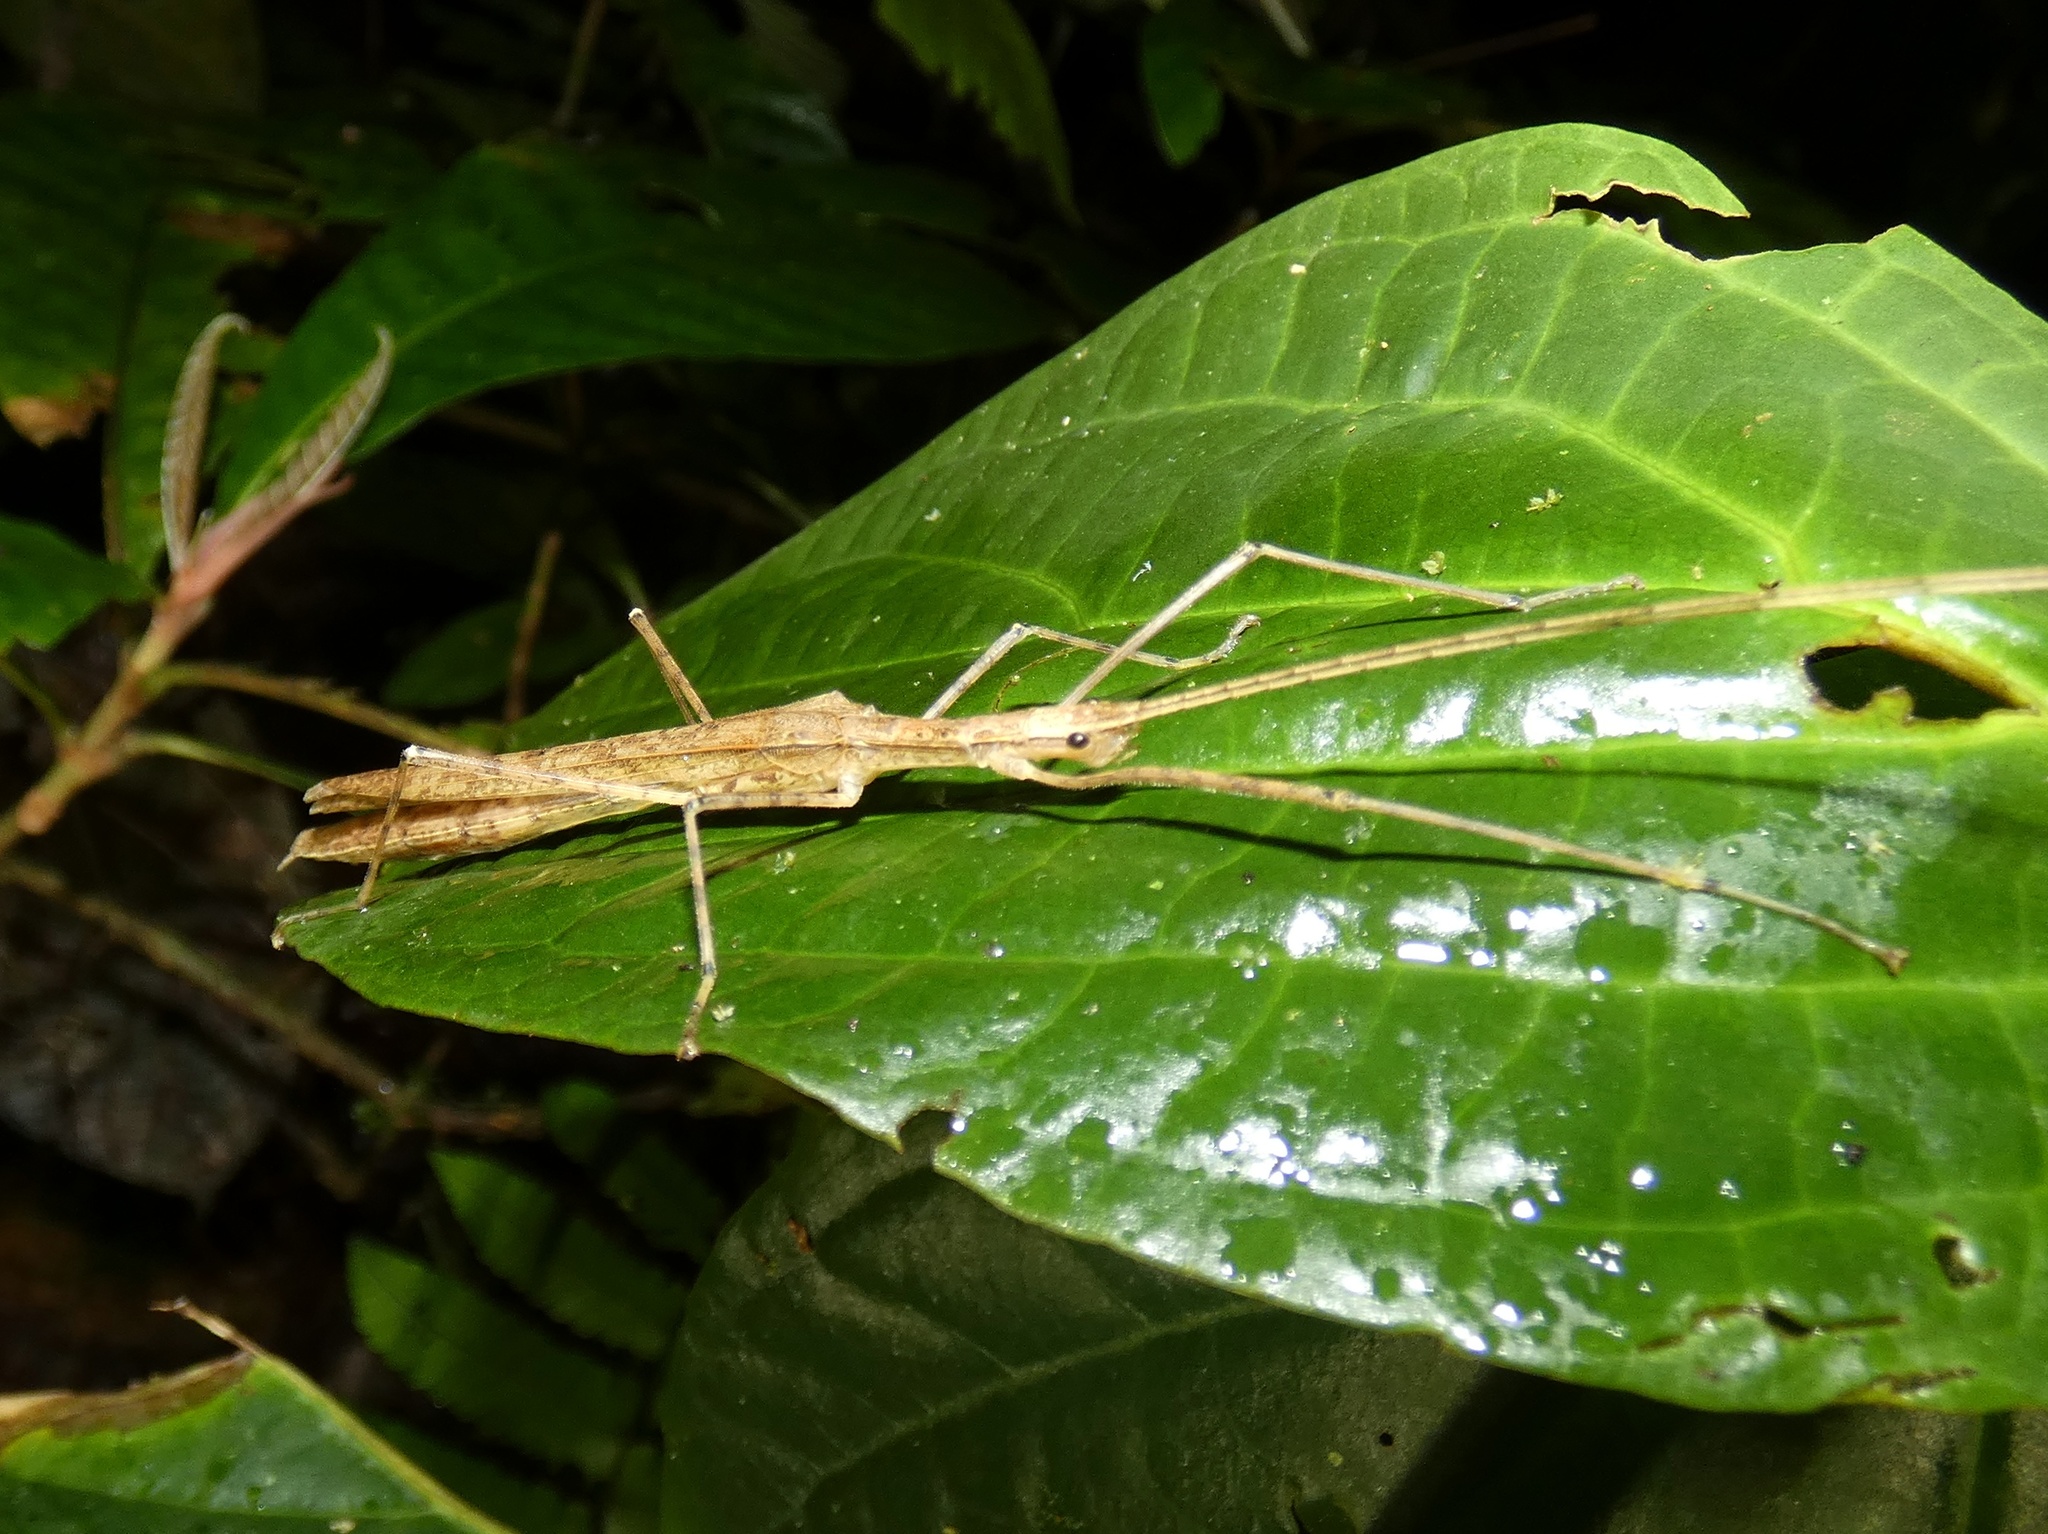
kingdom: Animalia
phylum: Arthropoda
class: Insecta
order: Phasmida
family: Pseudophasmatidae
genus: Pseudophasma
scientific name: Pseudophasma phaeton
